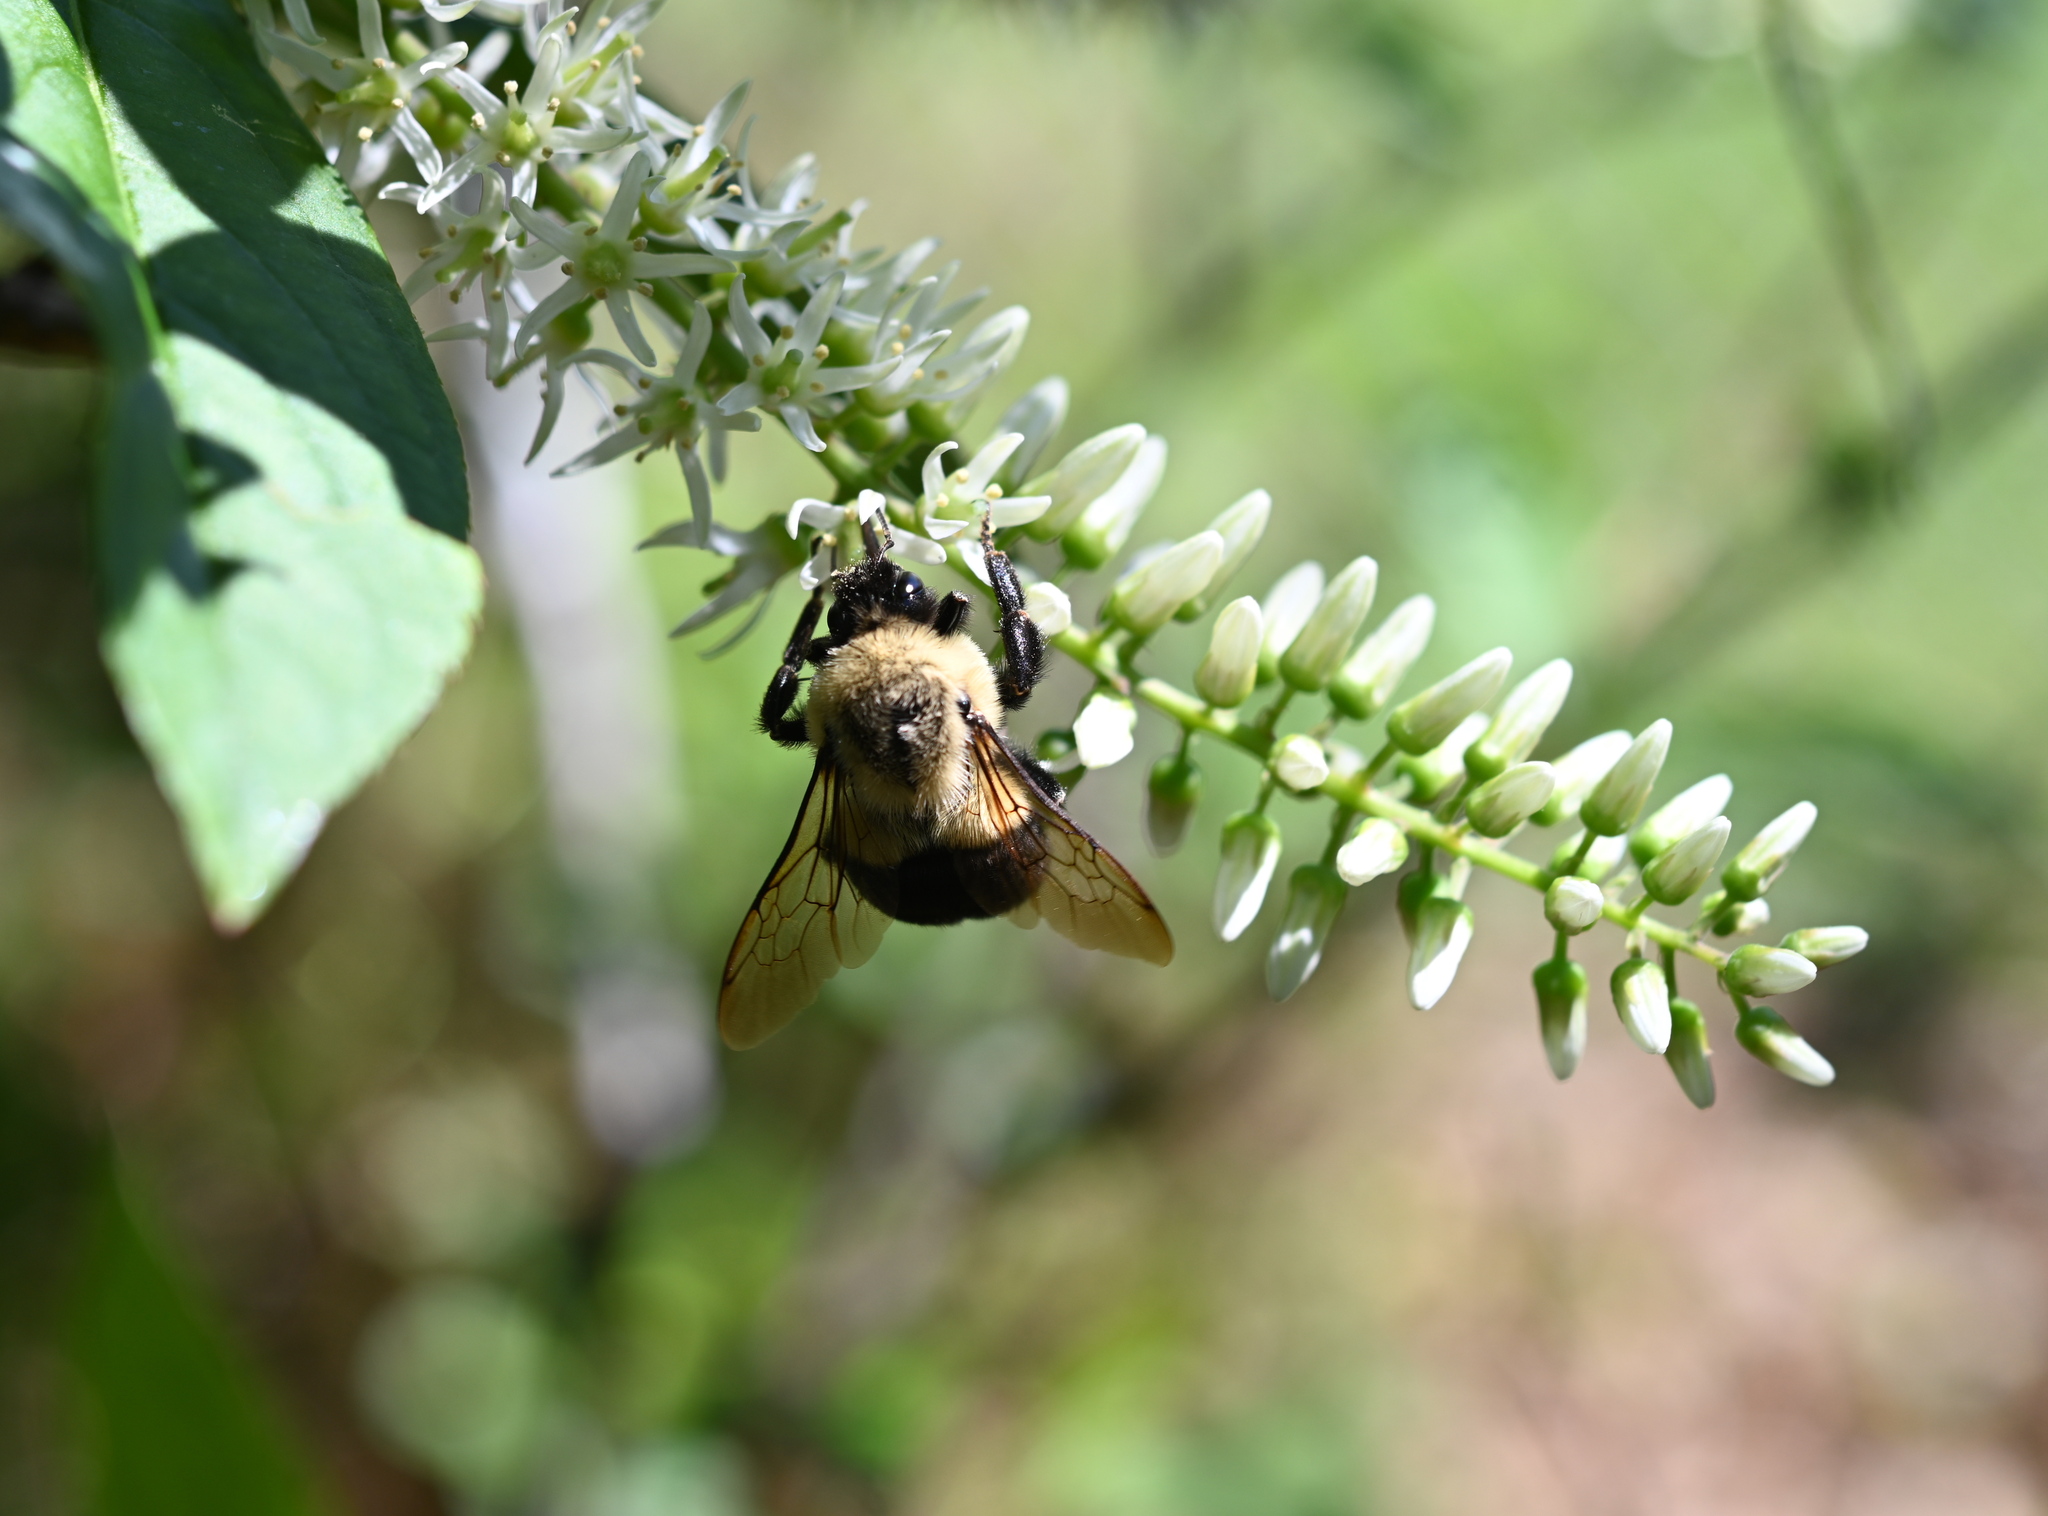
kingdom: Animalia
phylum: Arthropoda
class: Insecta
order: Hymenoptera
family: Apidae
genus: Bombus
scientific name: Bombus impatiens
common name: Common eastern bumble bee
